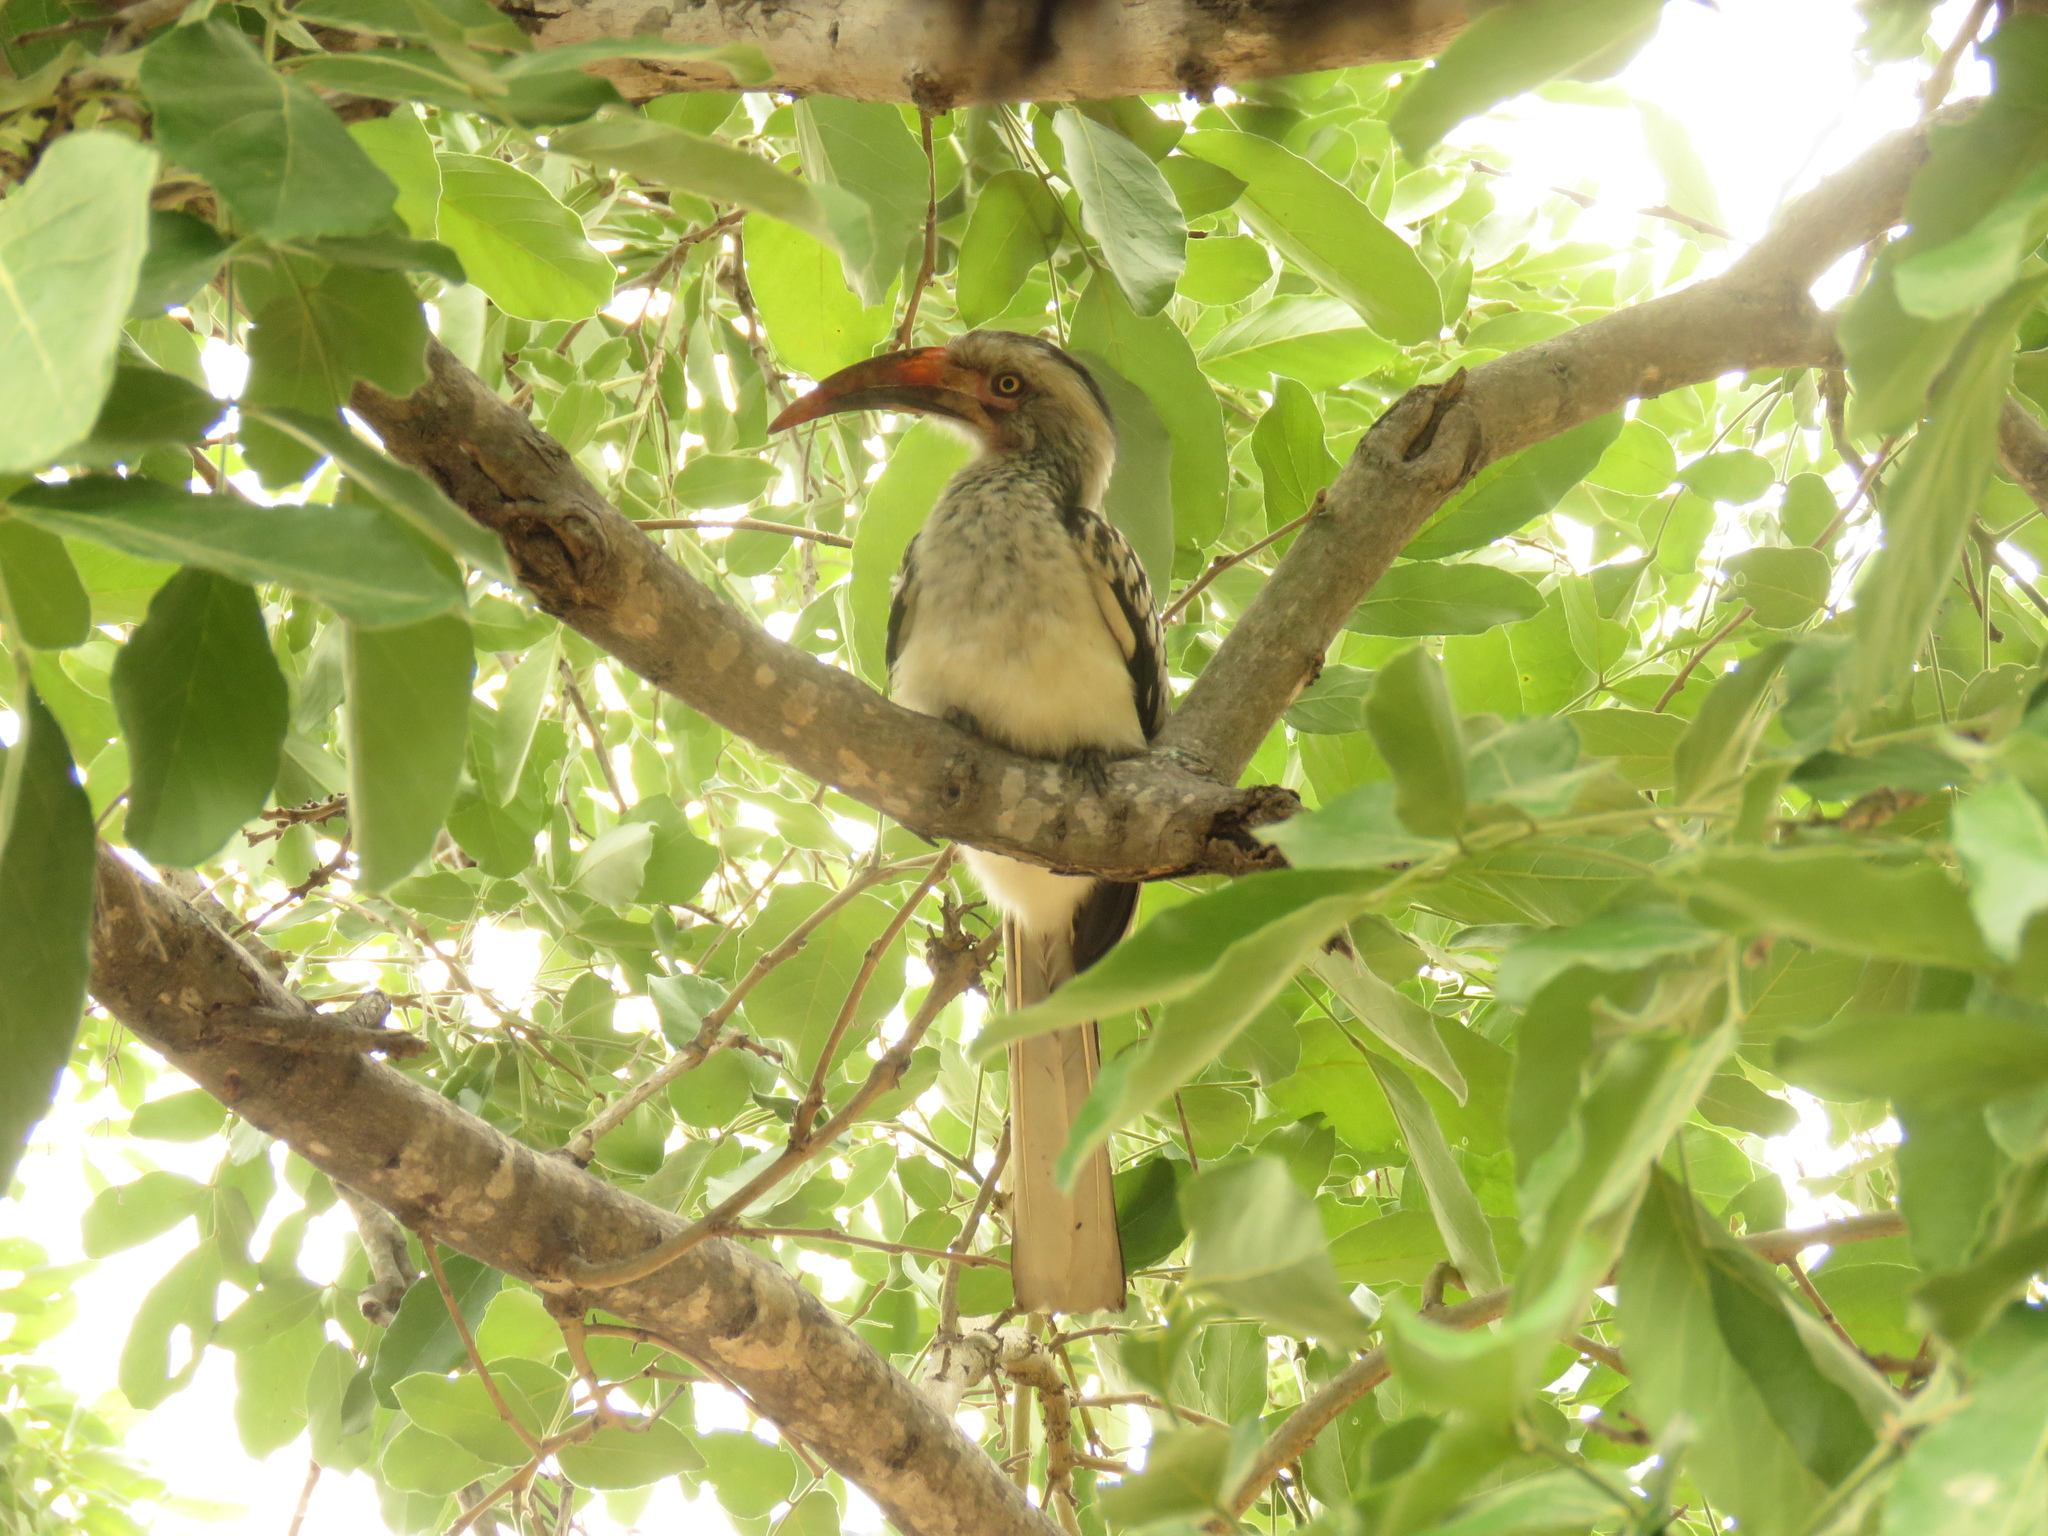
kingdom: Animalia
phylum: Chordata
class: Aves
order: Bucerotiformes
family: Bucerotidae
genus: Tockus
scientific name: Tockus rufirostris
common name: Southern red-billed hornbill
